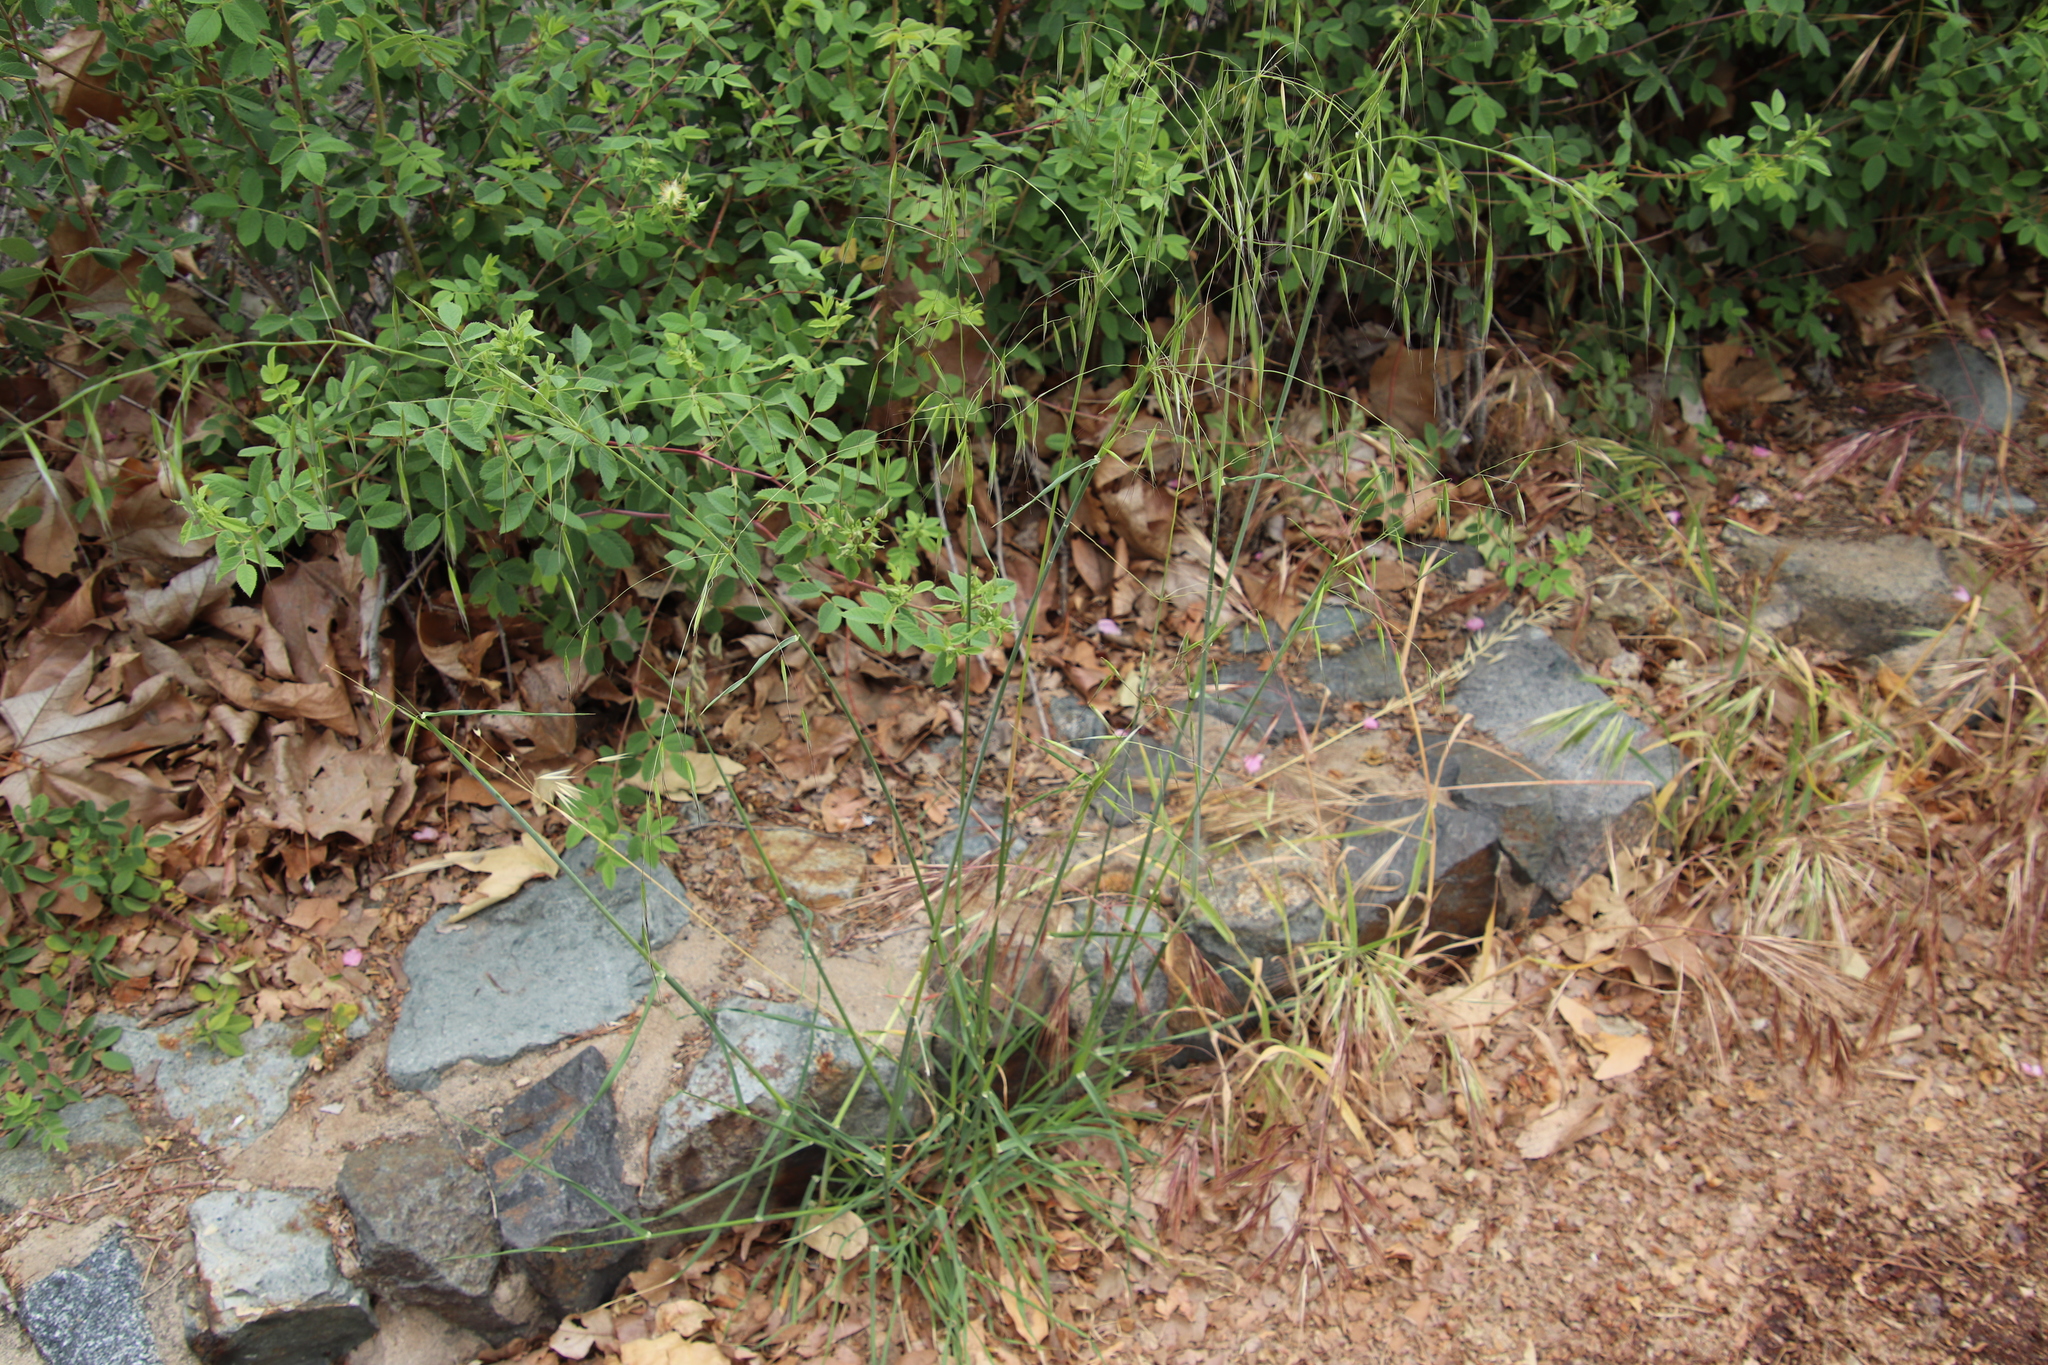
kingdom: Plantae
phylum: Tracheophyta
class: Liliopsida
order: Poales
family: Poaceae
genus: Avena
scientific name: Avena barbata
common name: Slender oat
